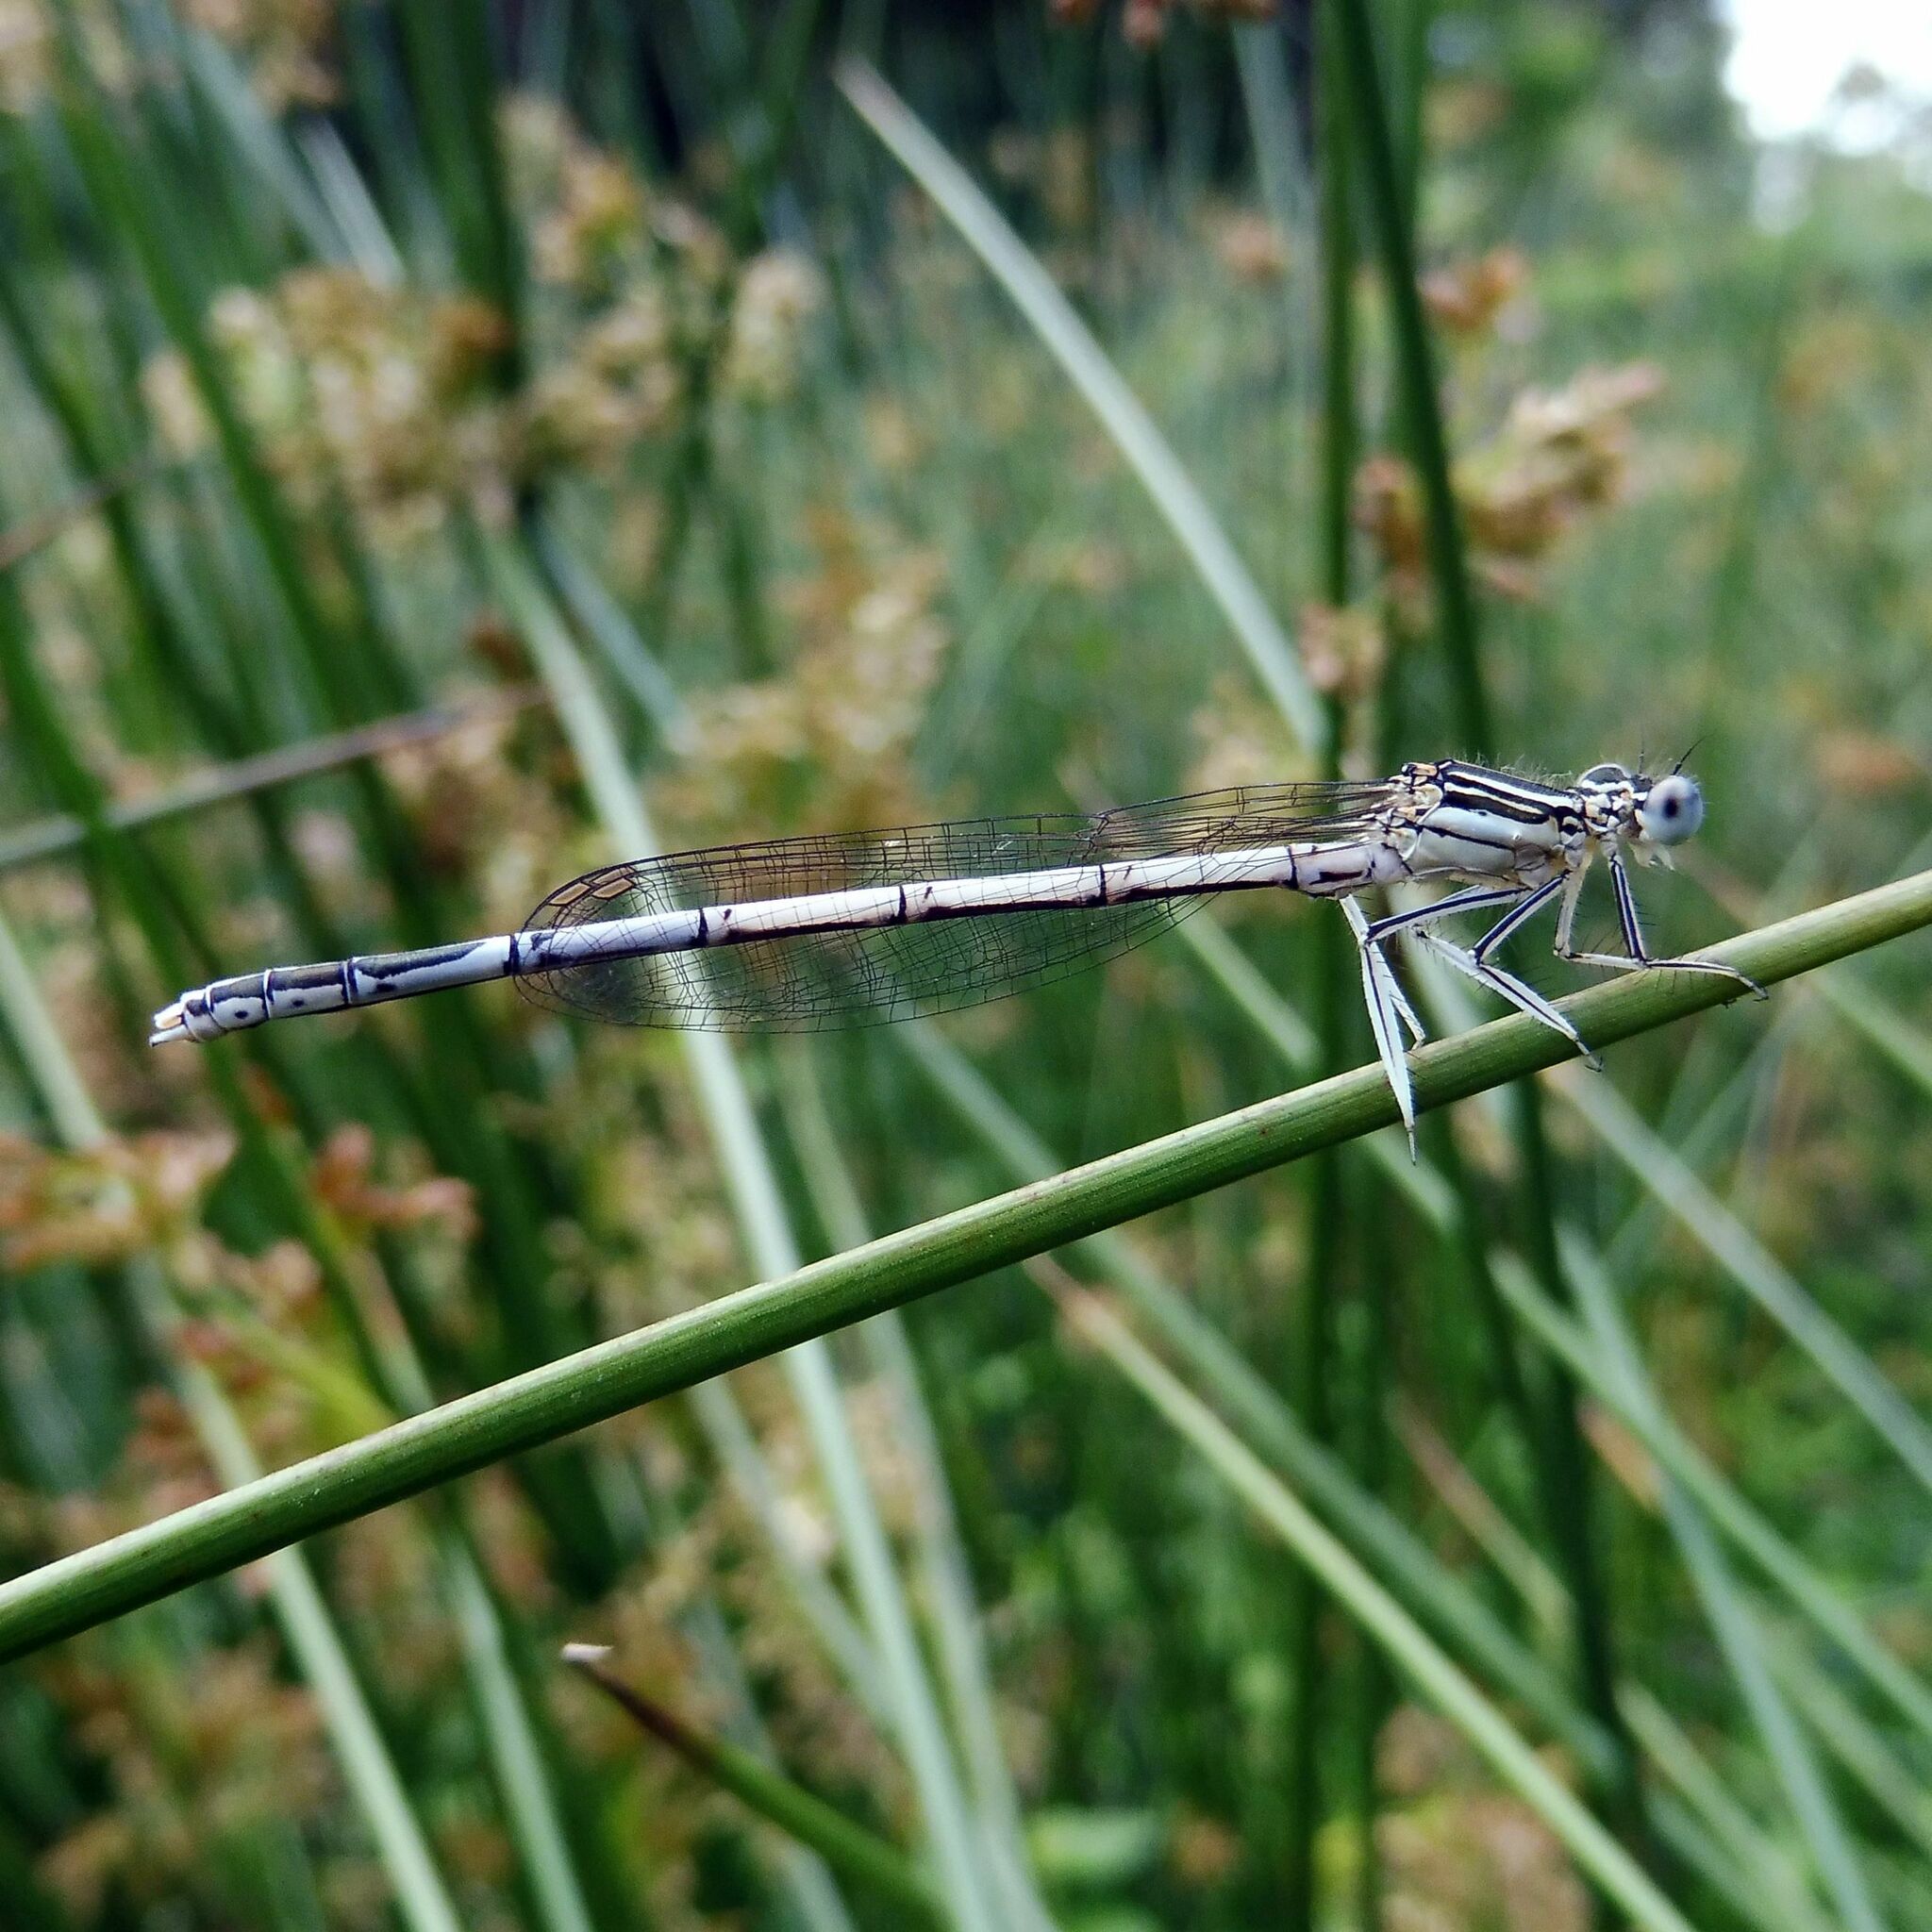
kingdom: Animalia
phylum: Arthropoda
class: Insecta
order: Odonata
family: Platycnemididae
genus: Platycnemis
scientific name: Platycnemis pennipes
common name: White-legged damselfly
